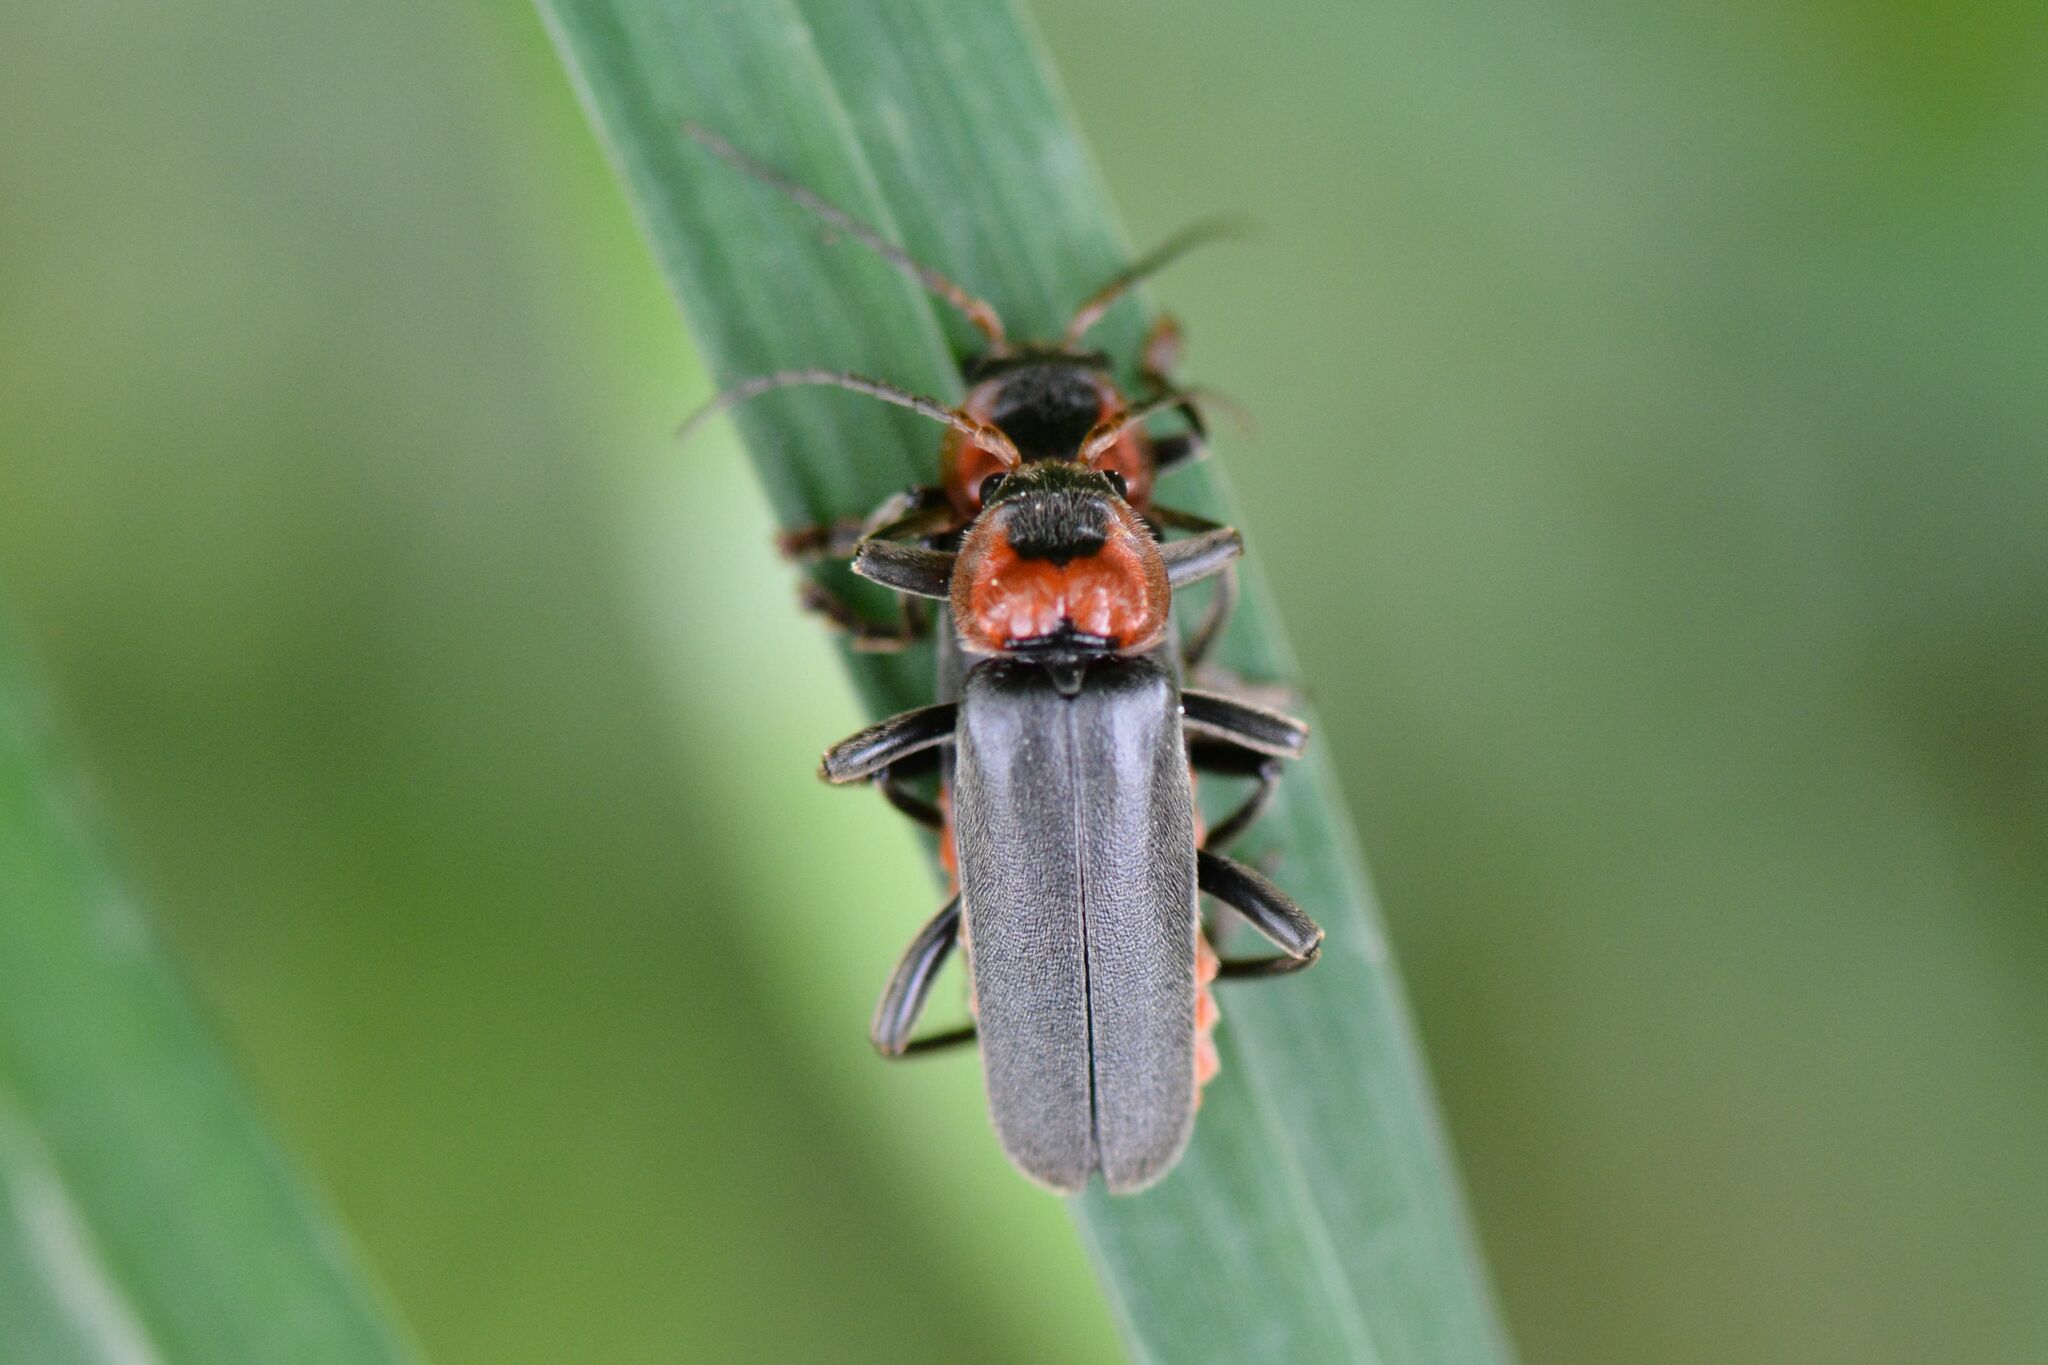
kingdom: Animalia
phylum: Arthropoda
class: Insecta
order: Coleoptera
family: Cantharidae
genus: Cantharis
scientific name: Cantharis fusca
